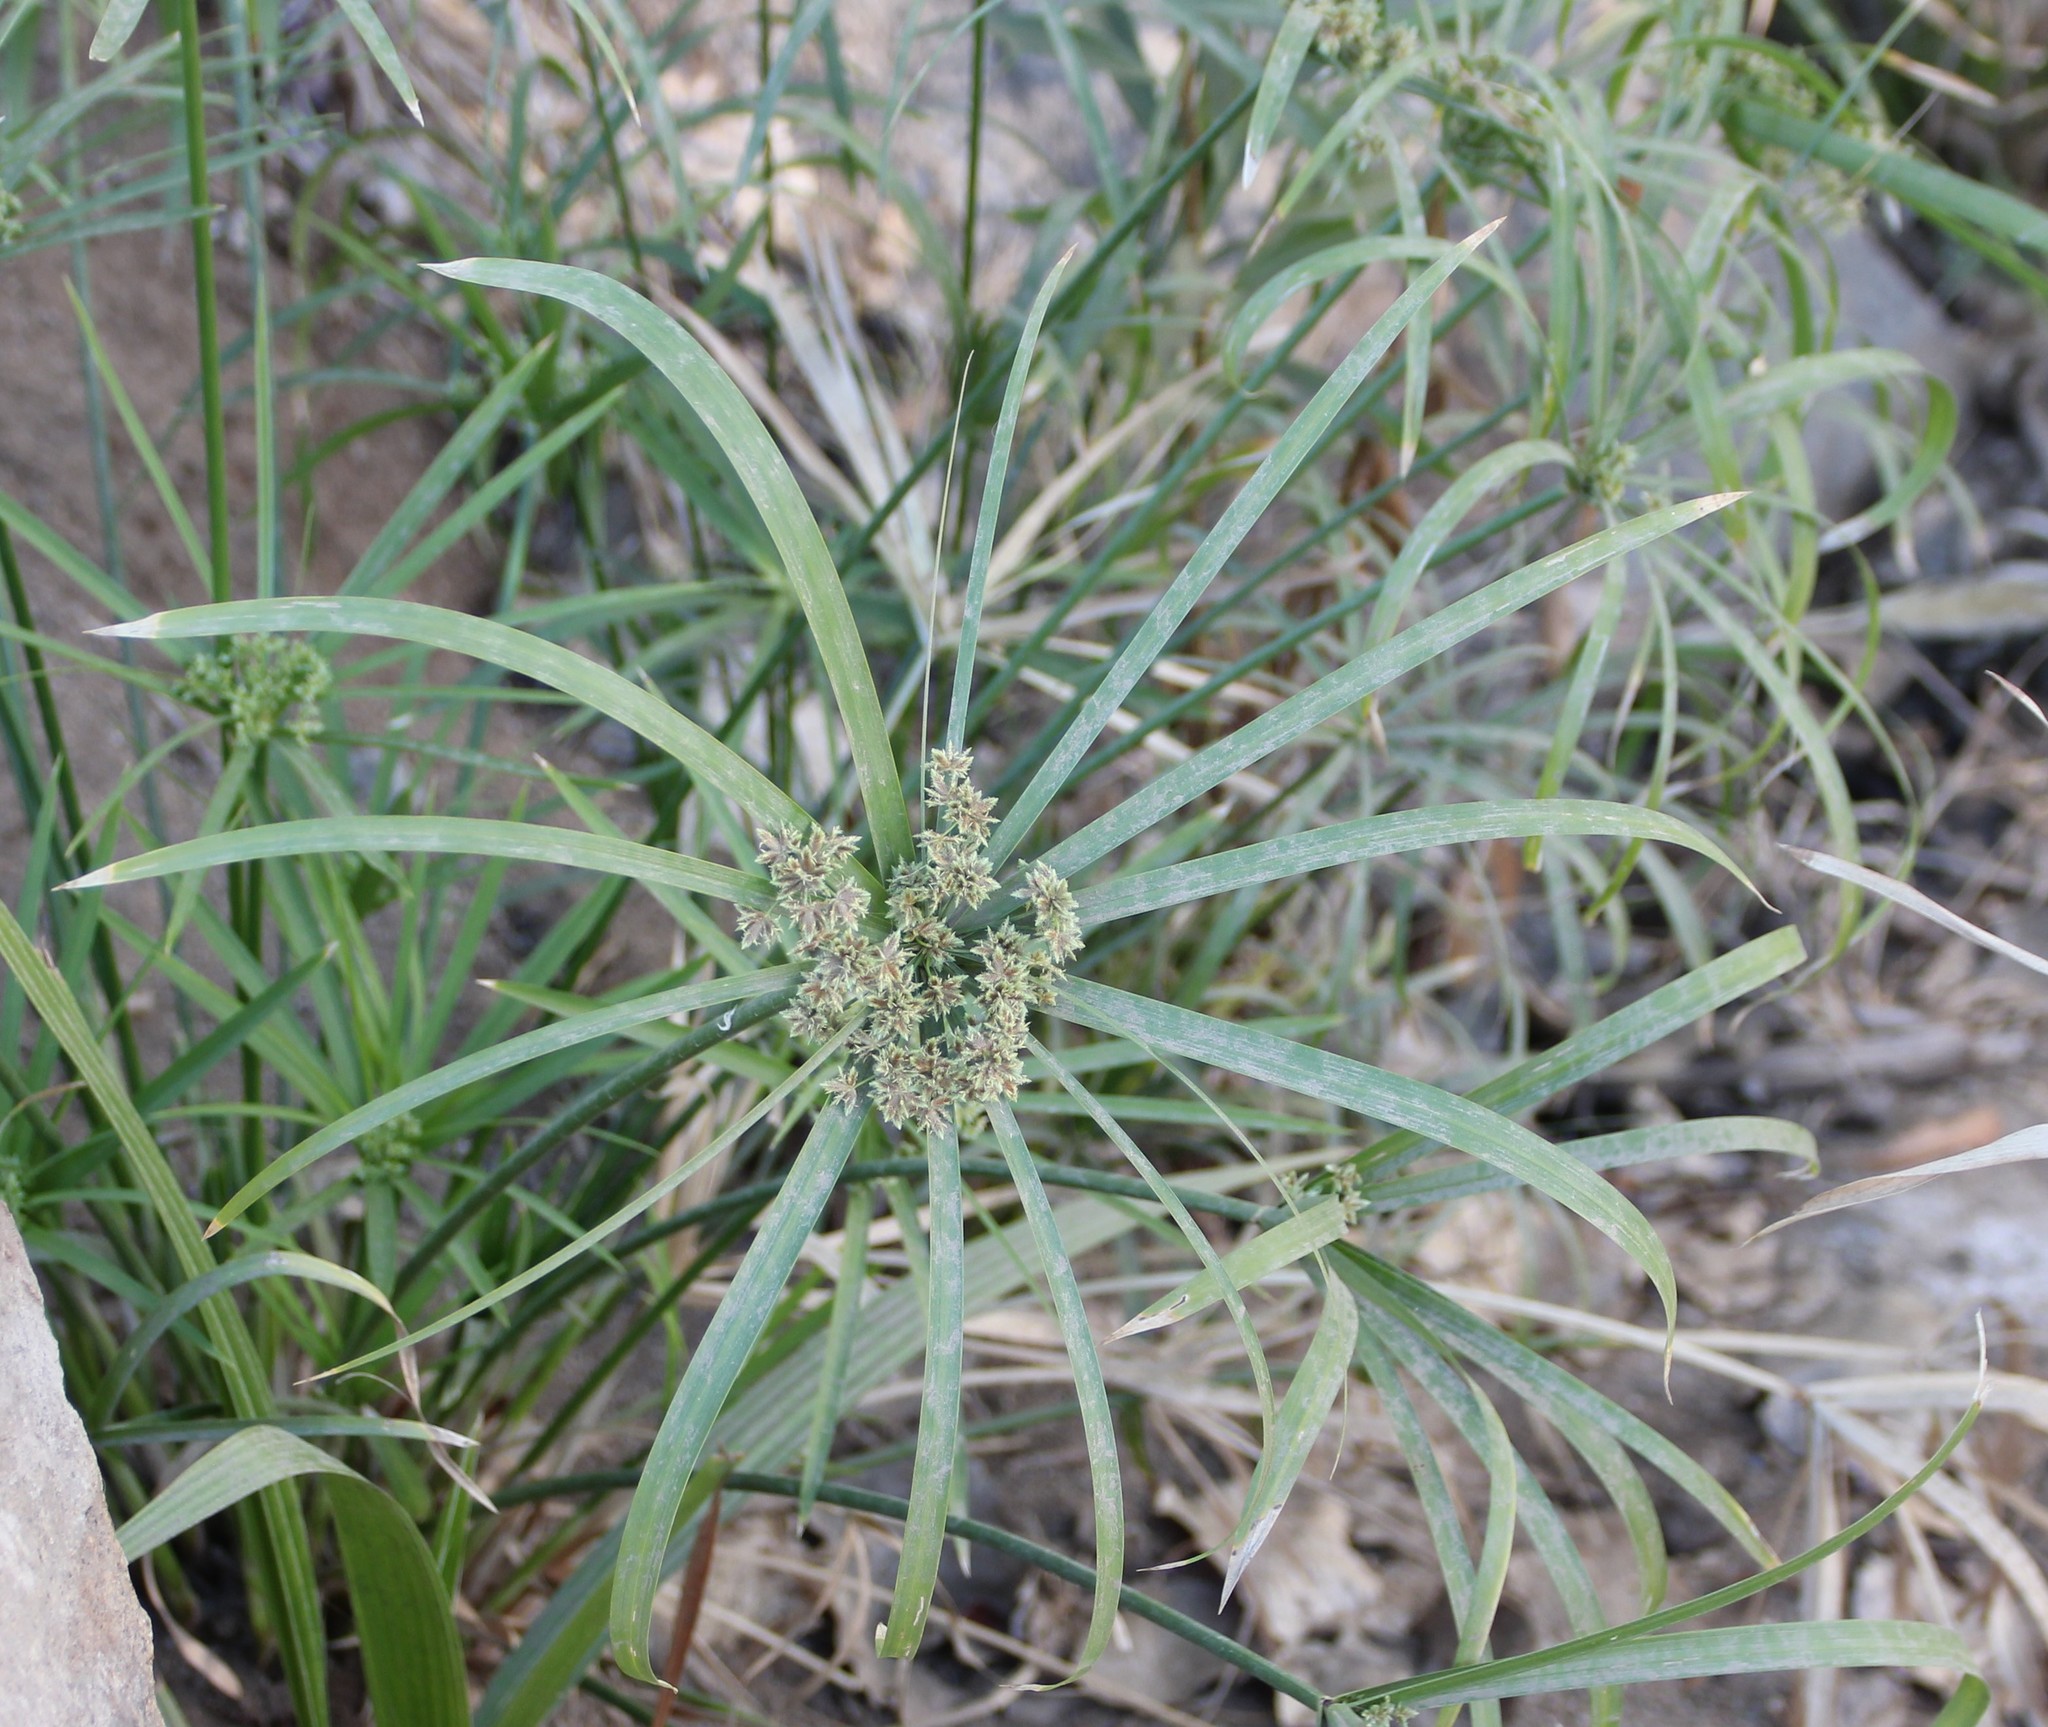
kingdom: Plantae
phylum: Tracheophyta
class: Liliopsida
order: Poales
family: Cyperaceae
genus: Cyperus
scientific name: Cyperus alternifolius
